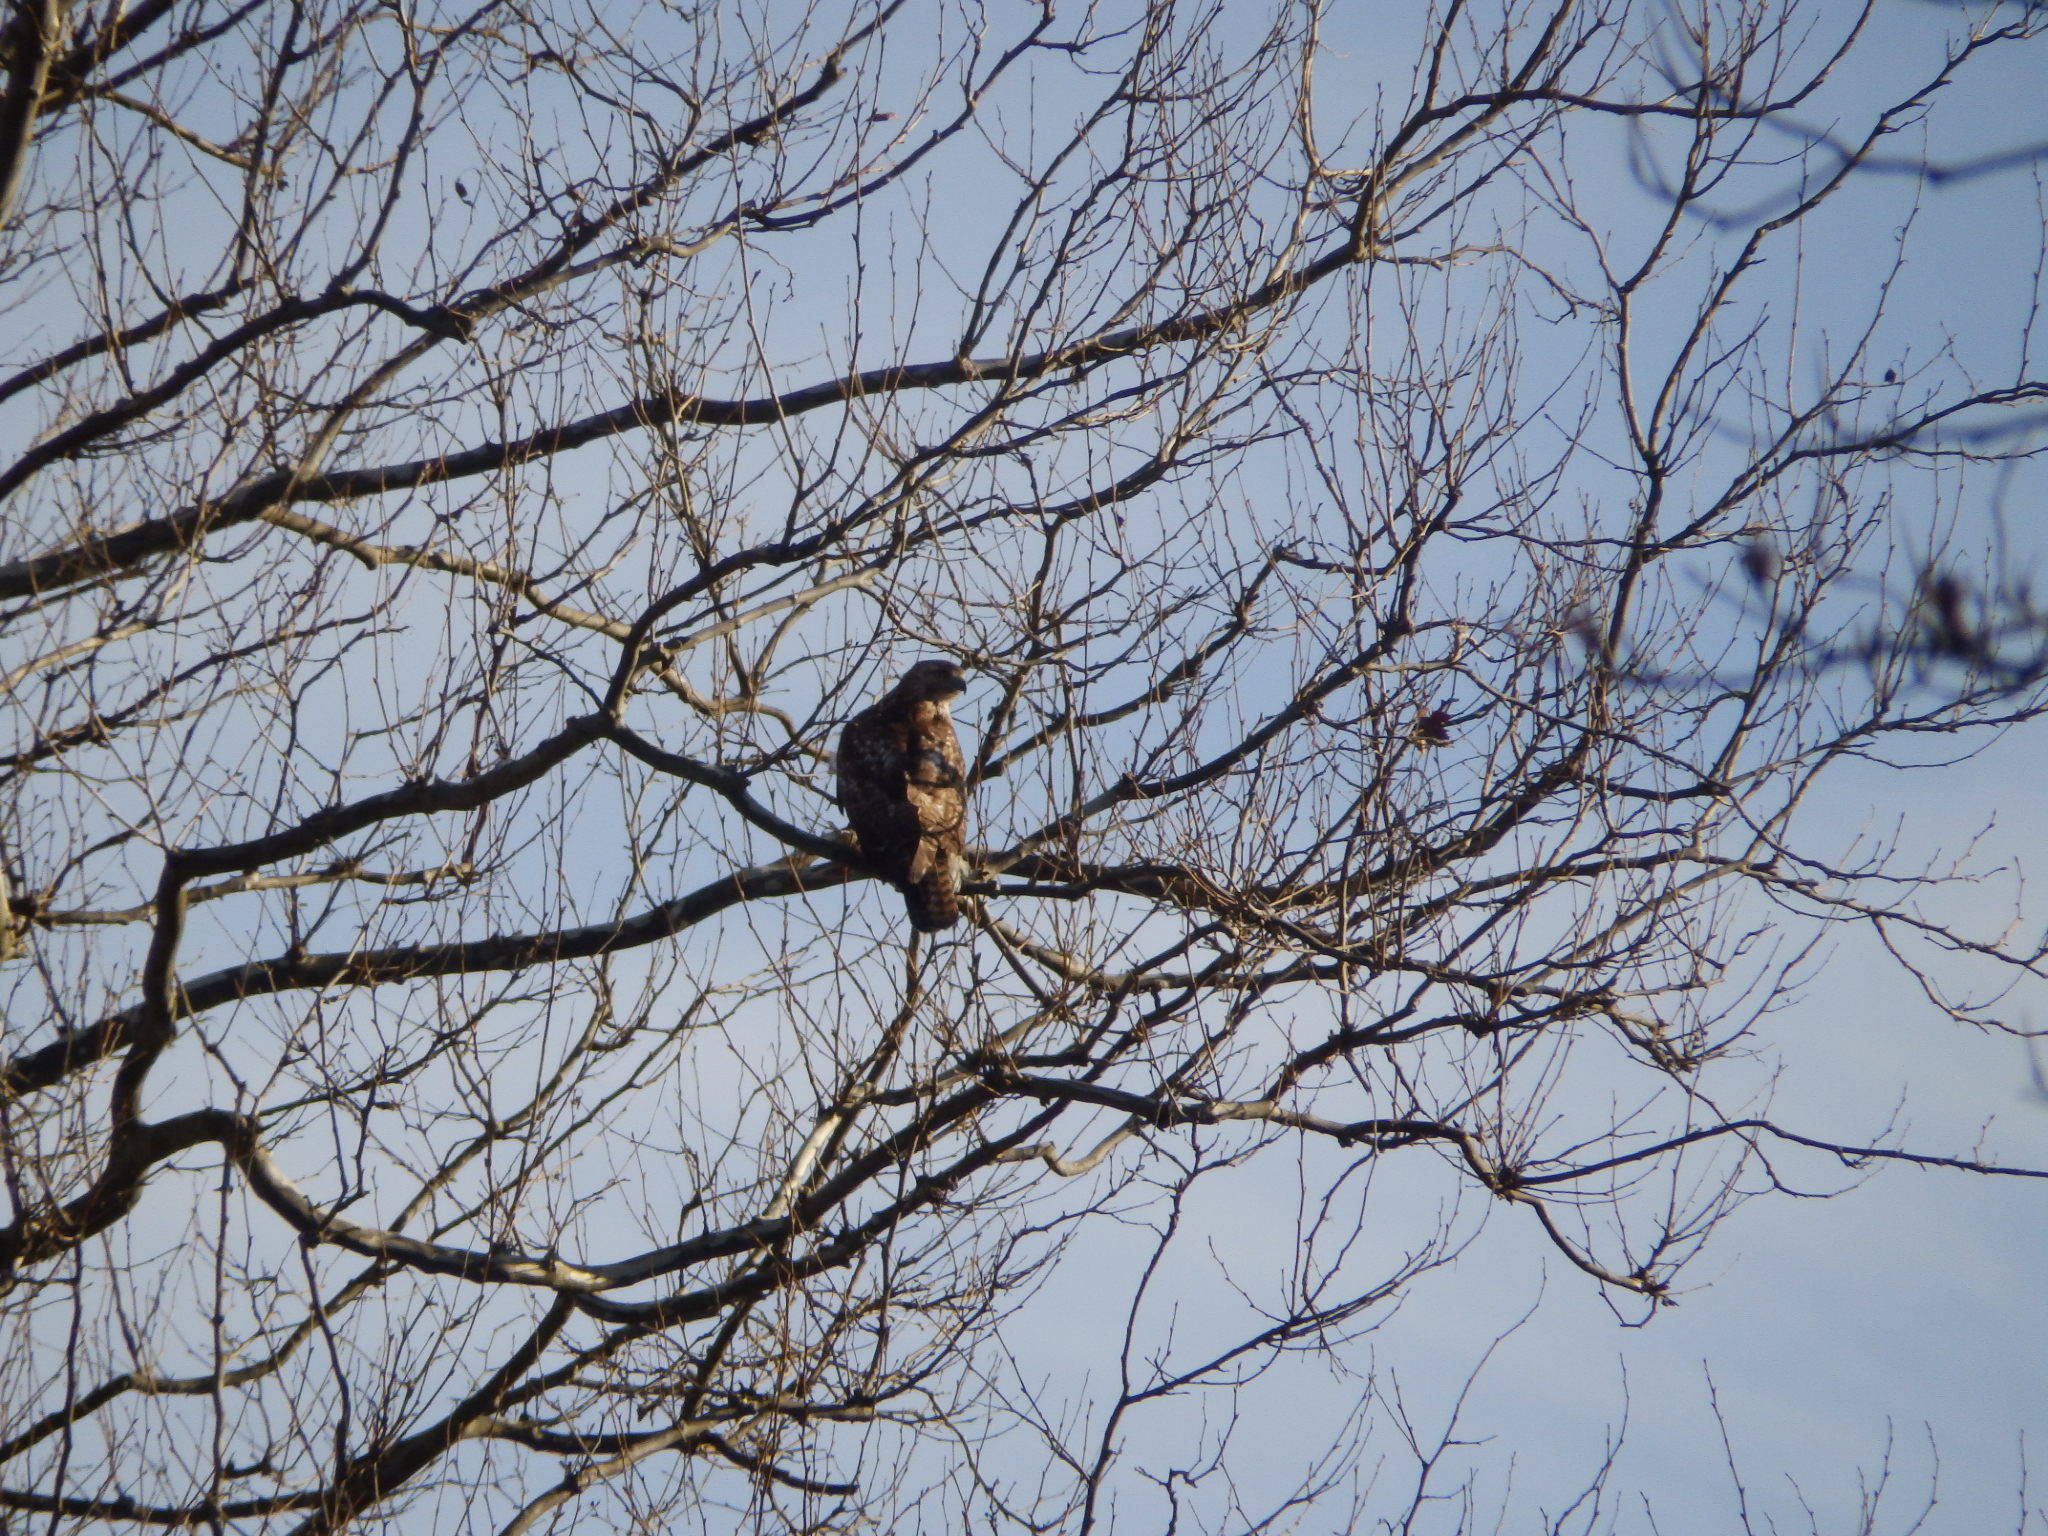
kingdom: Animalia
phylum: Chordata
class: Aves
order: Accipitriformes
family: Accipitridae
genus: Buteo
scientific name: Buteo jamaicensis
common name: Red-tailed hawk
